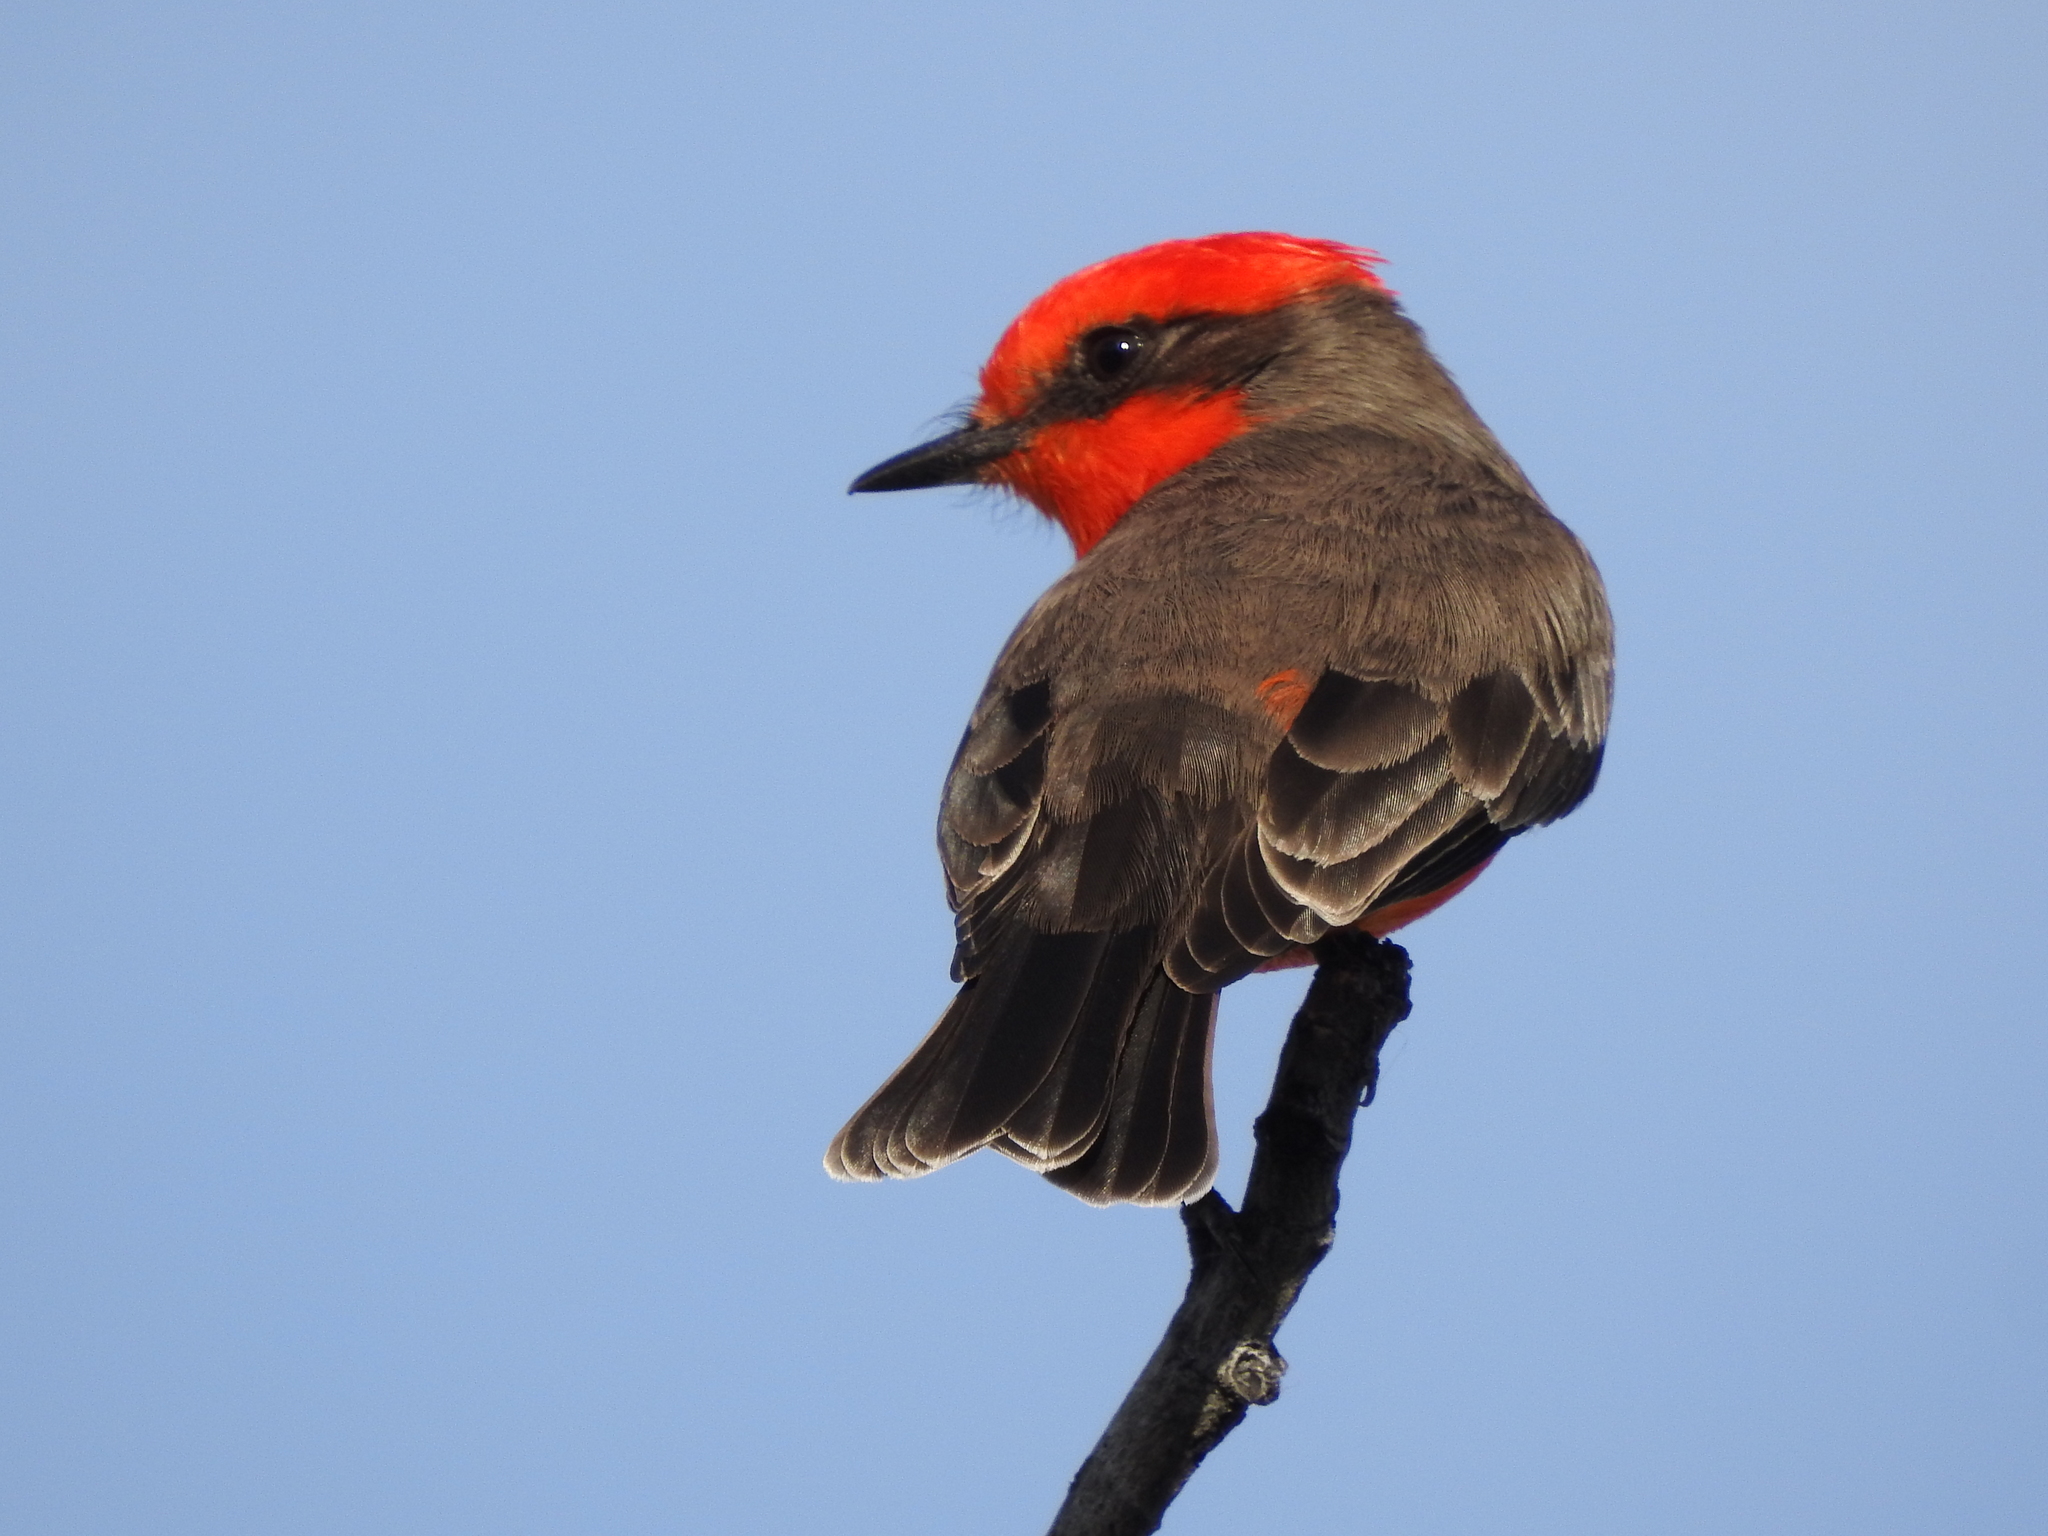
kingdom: Animalia
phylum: Chordata
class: Aves
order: Passeriformes
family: Tyrannidae
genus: Pyrocephalus
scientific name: Pyrocephalus rubinus
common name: Vermilion flycatcher
